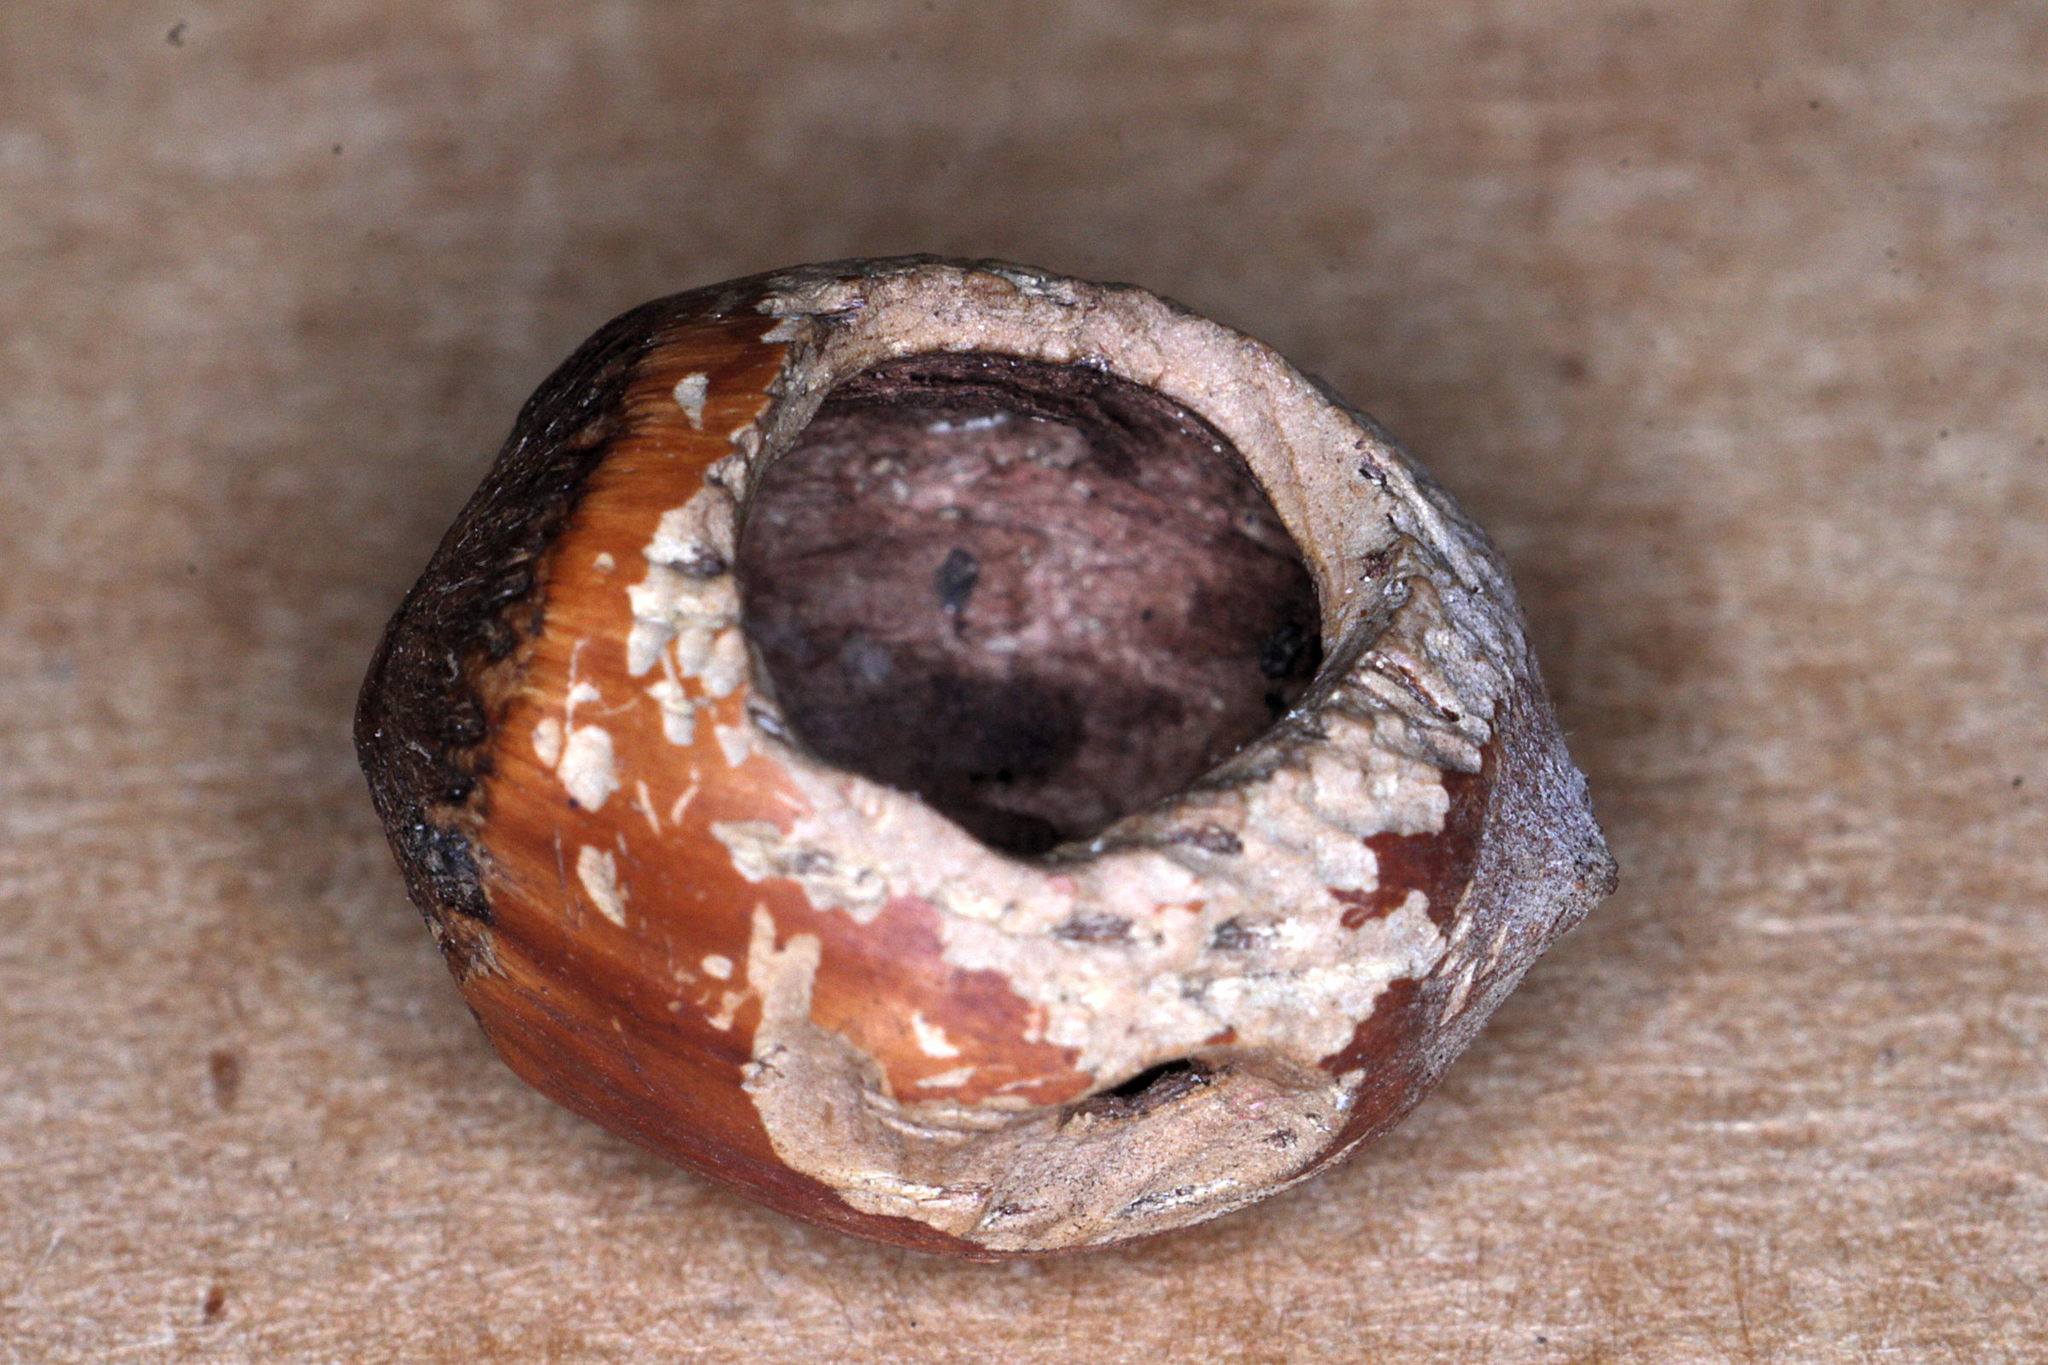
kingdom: Animalia
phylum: Chordata
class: Mammalia
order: Rodentia
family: Gliridae
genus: Muscardinus
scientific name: Muscardinus avellanarius
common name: Hazel dormouse
